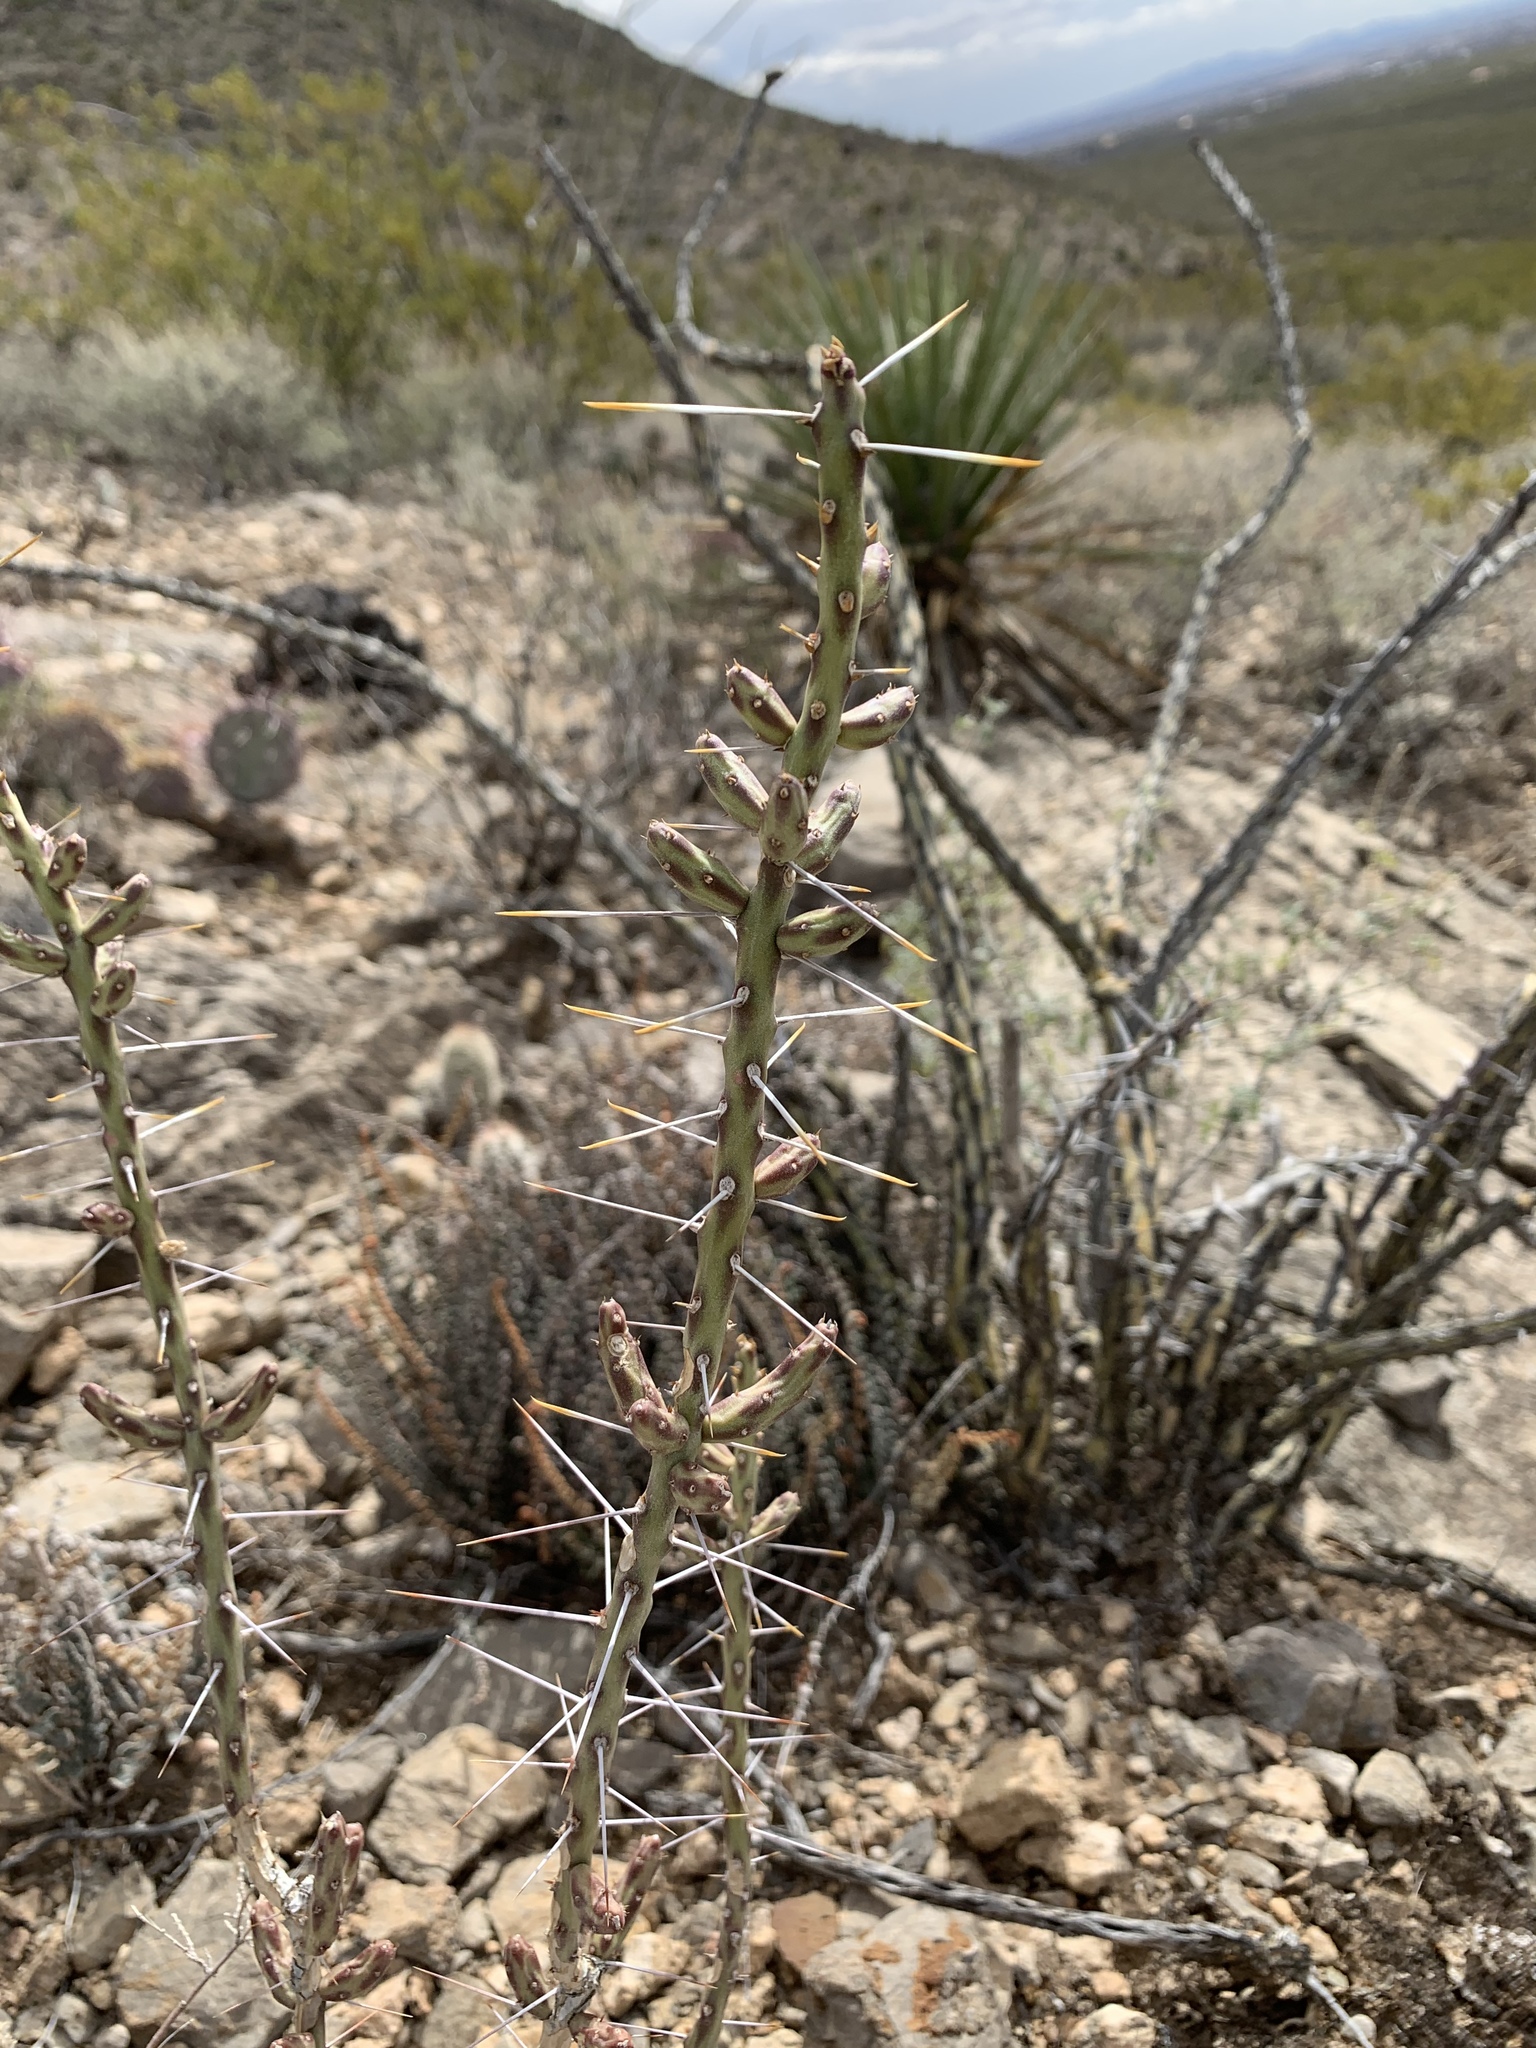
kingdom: Plantae
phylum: Tracheophyta
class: Magnoliopsida
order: Caryophyllales
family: Cactaceae
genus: Cylindropuntia
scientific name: Cylindropuntia leptocaulis
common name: Christmas cactus
